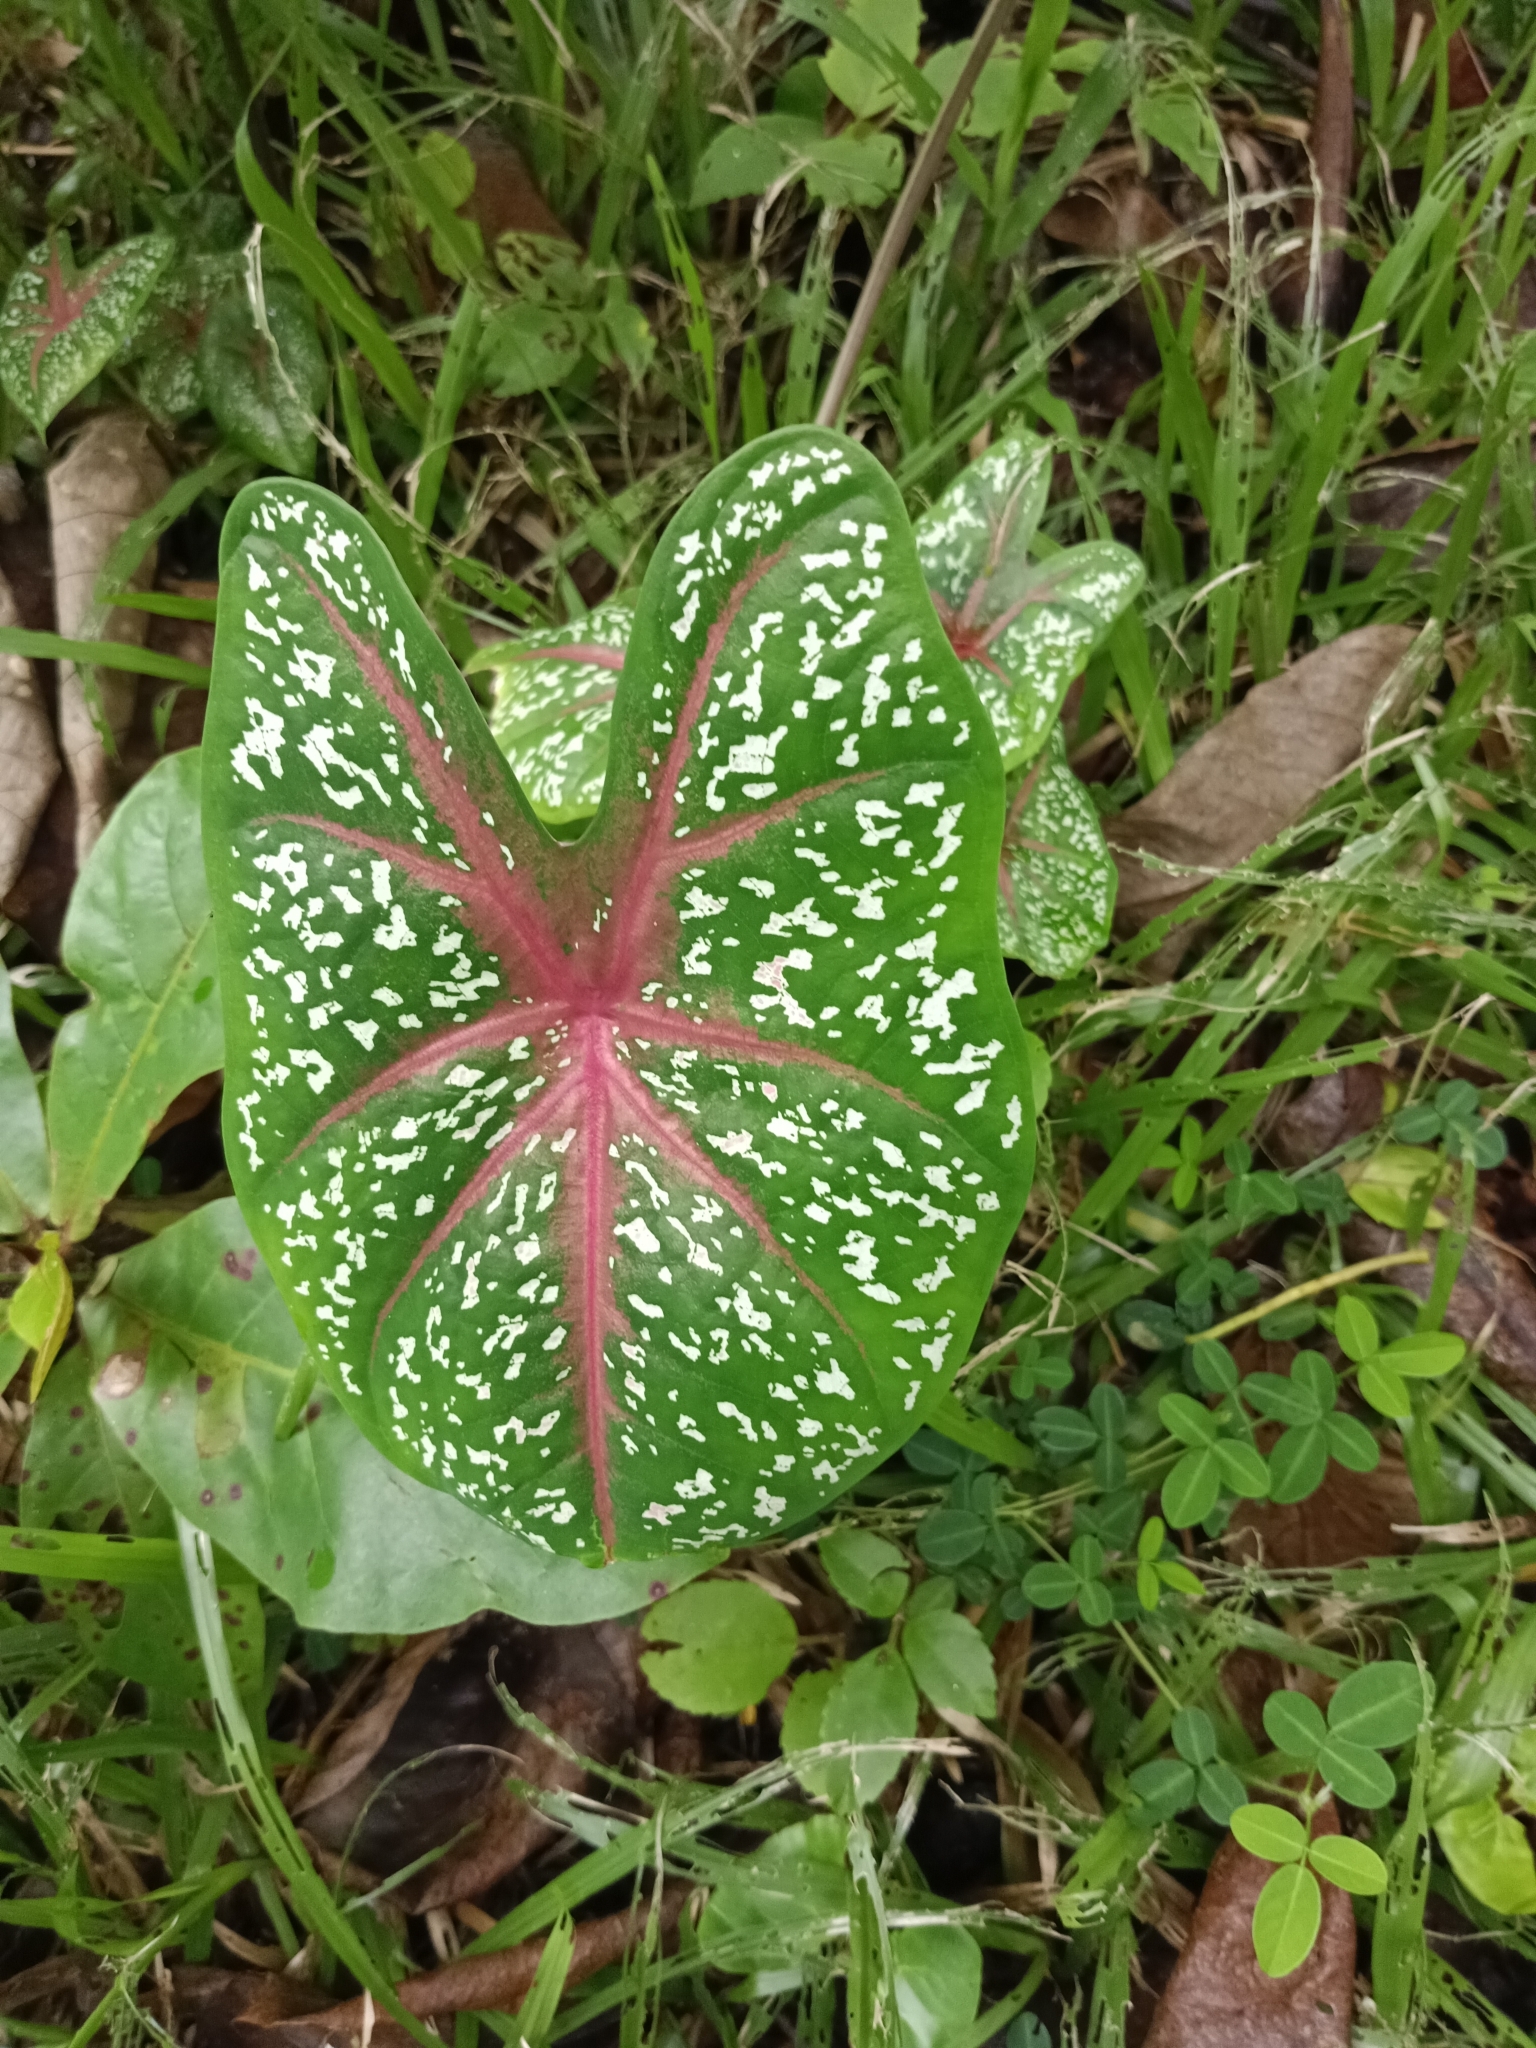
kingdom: Plantae
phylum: Tracheophyta
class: Liliopsida
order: Alismatales
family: Araceae
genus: Caladium
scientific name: Caladium bicolor
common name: Artist's pallet
